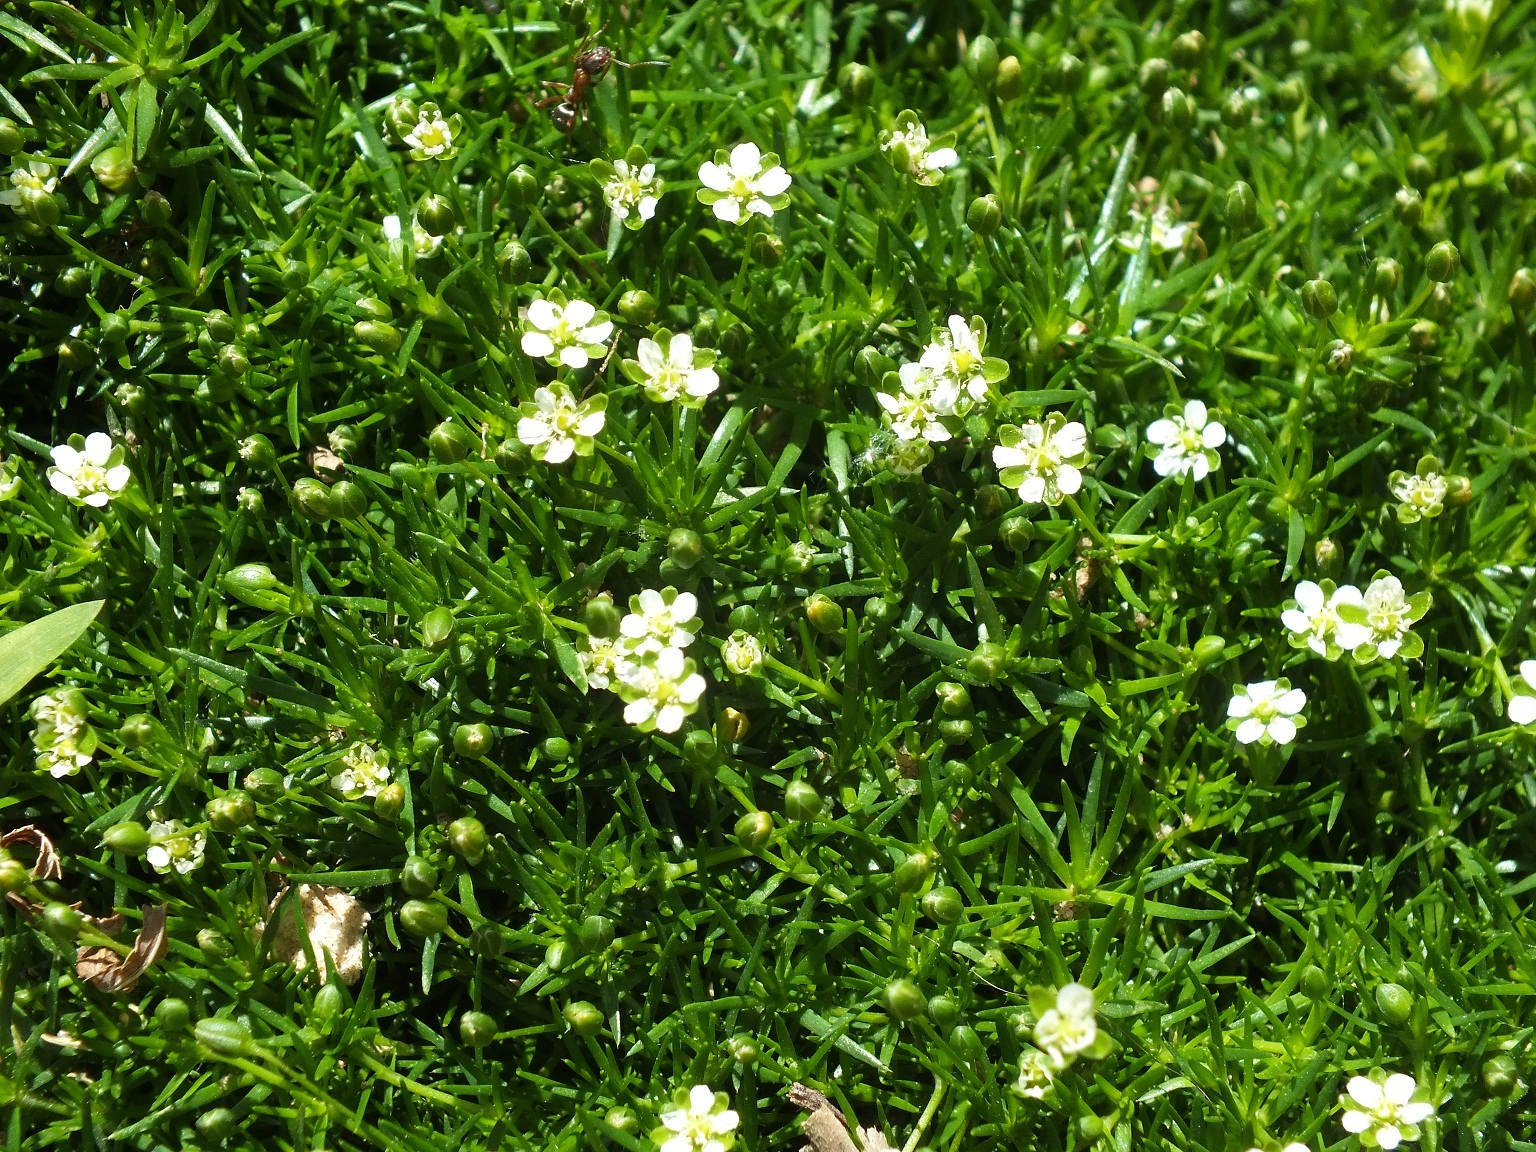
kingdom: Plantae
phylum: Tracheophyta
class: Magnoliopsida
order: Caryophyllales
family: Caryophyllaceae
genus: Sagina
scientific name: Sagina saginoides
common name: Alpine pearlwort
